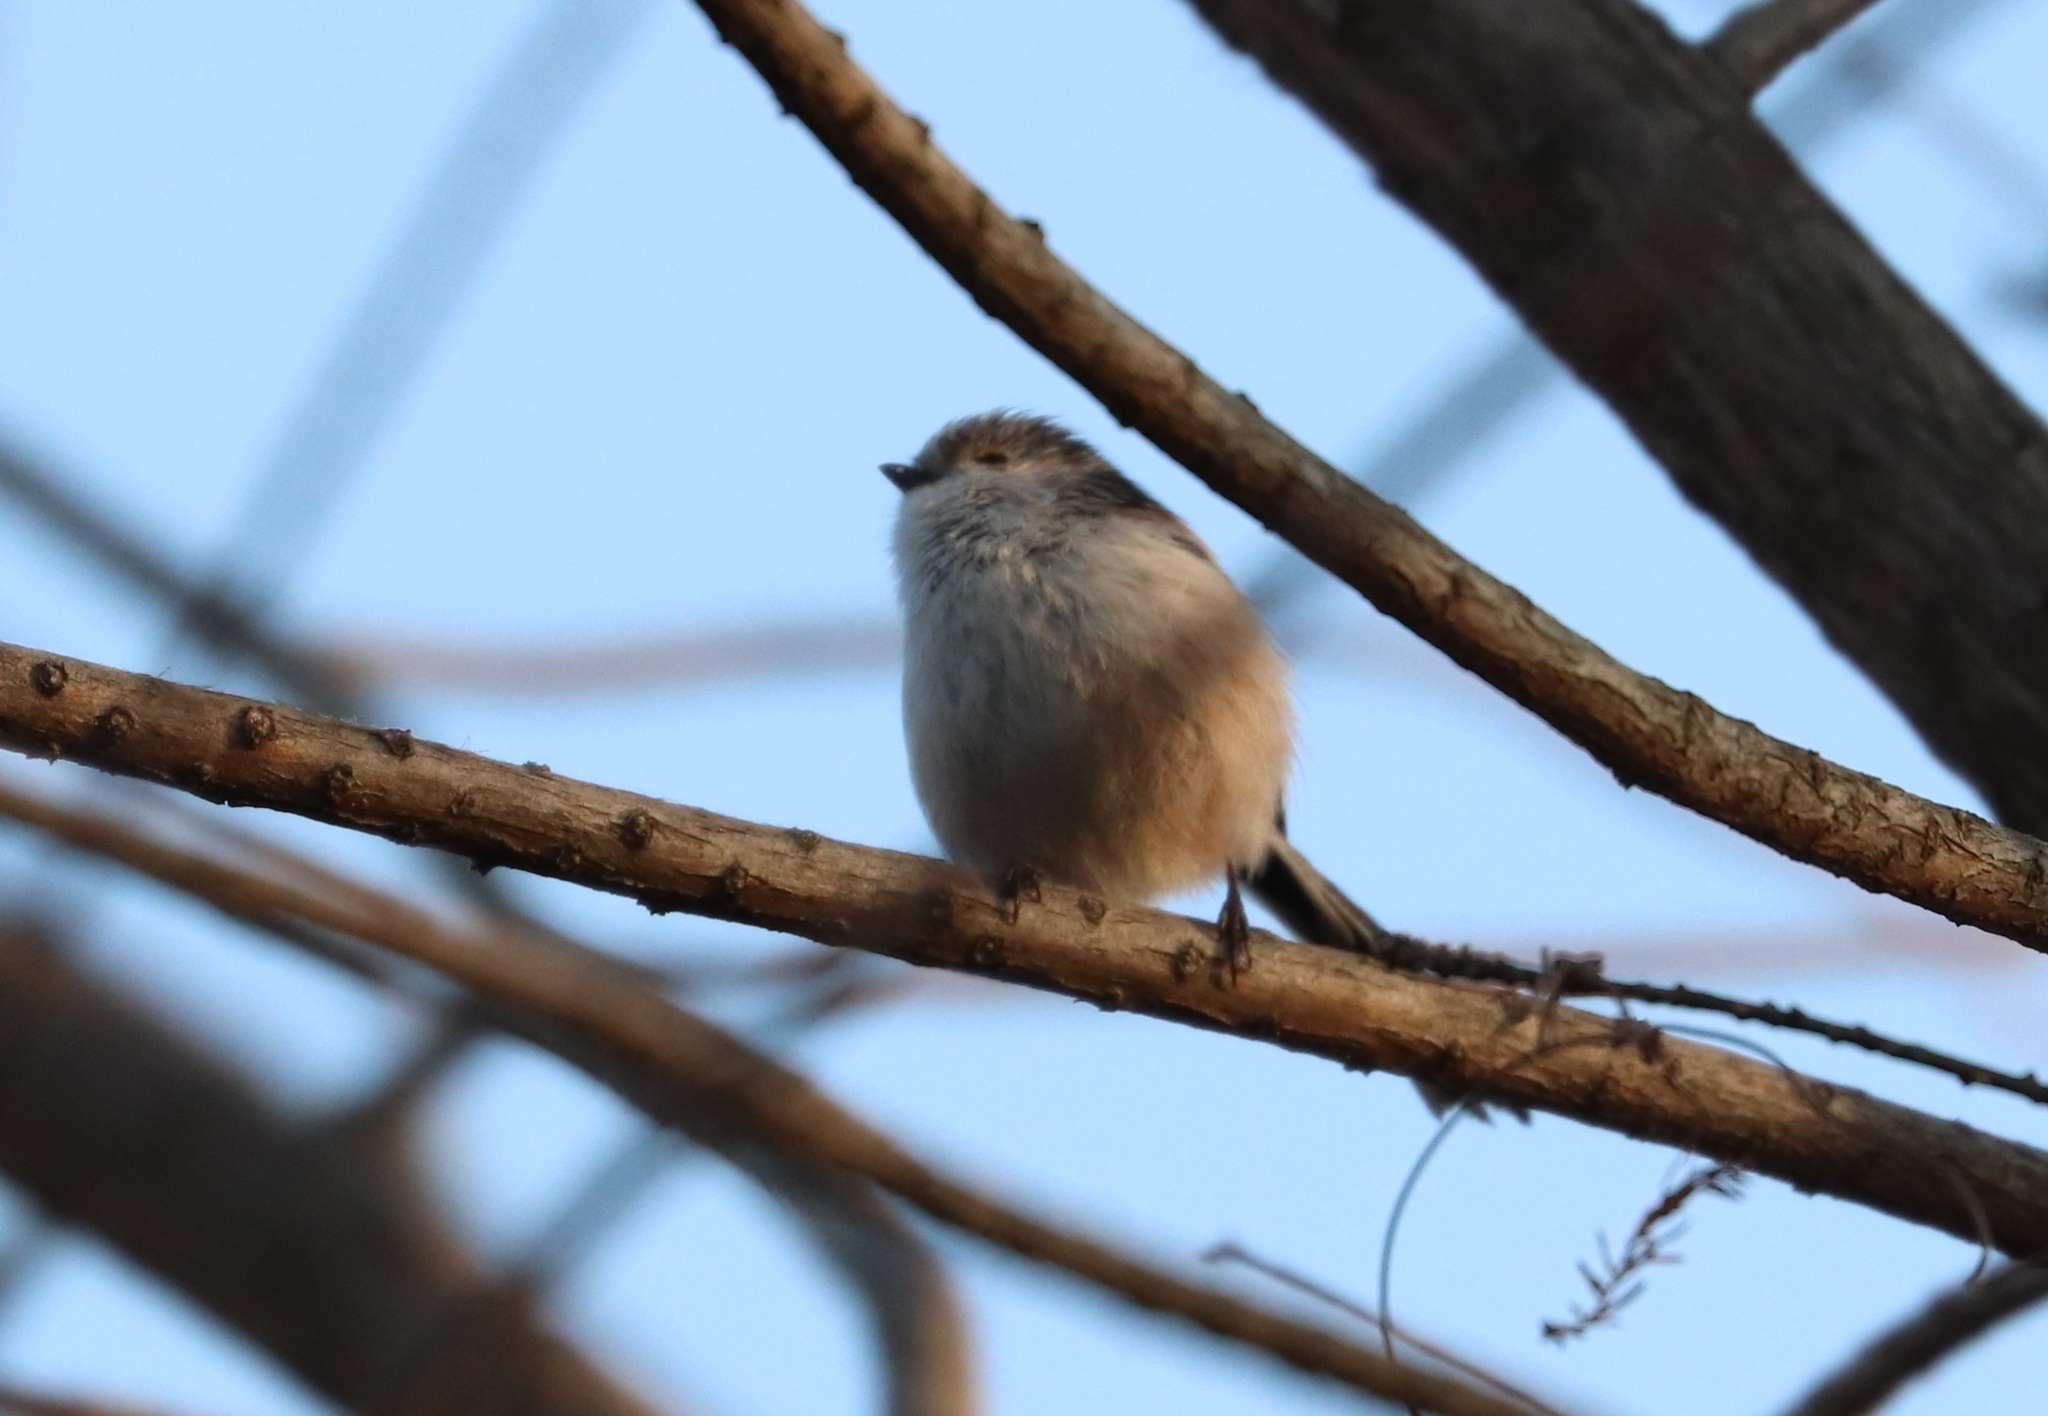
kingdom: Animalia
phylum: Chordata
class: Aves
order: Passeriformes
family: Aegithalidae
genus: Aegithalos
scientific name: Aegithalos caudatus
